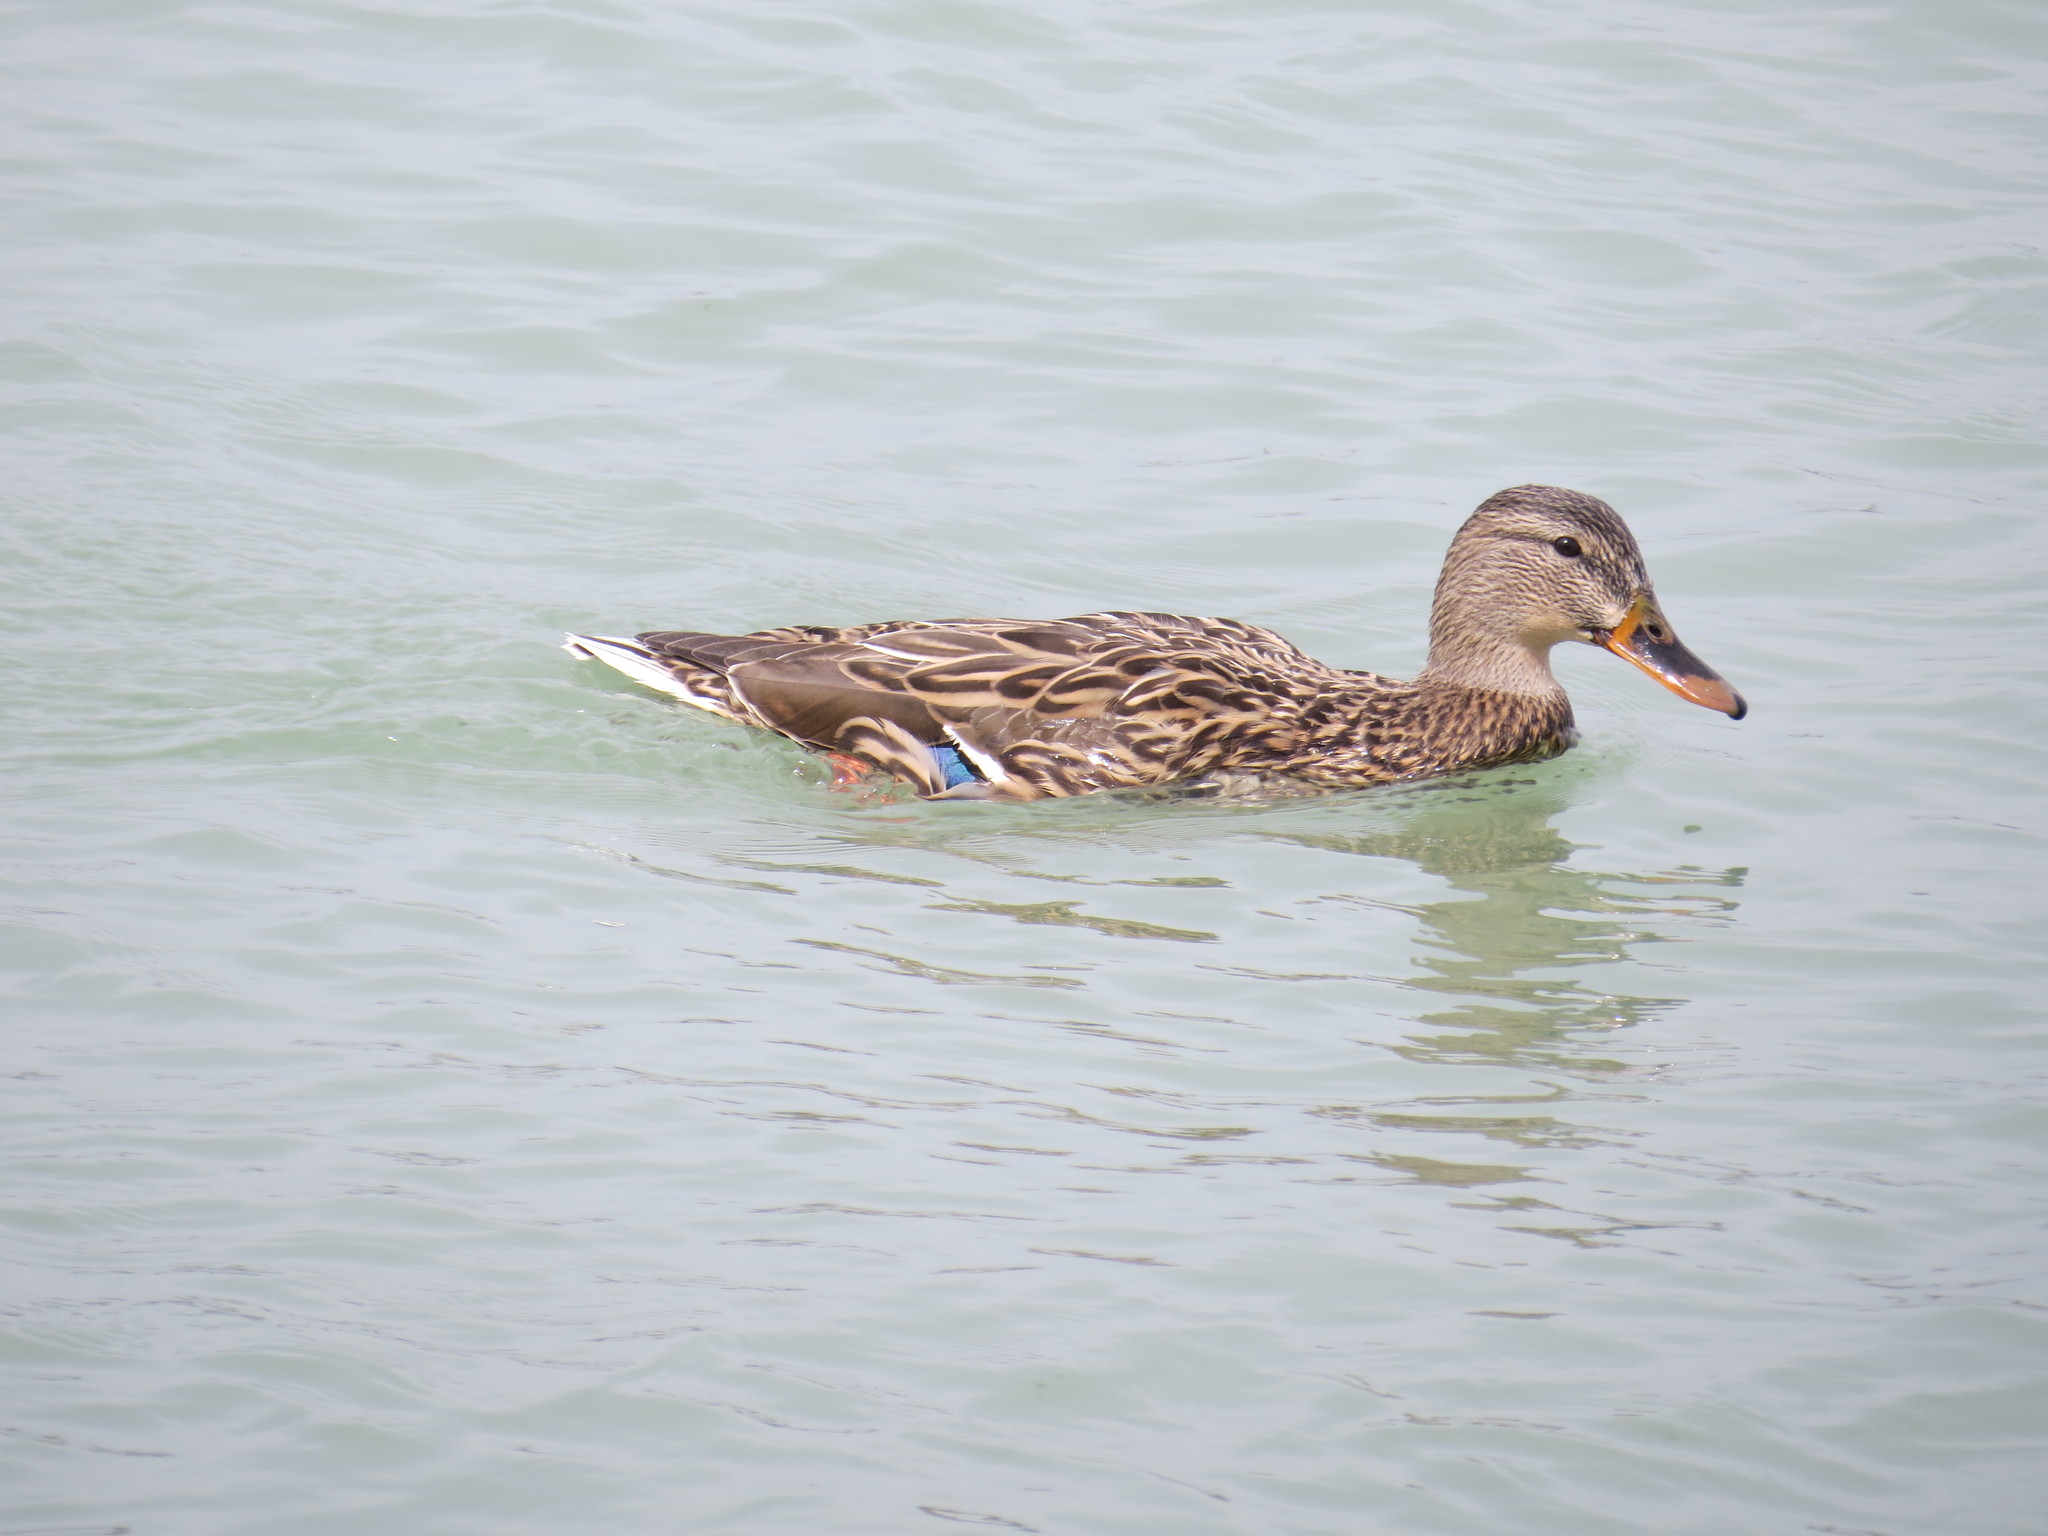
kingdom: Animalia
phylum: Chordata
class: Aves
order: Anseriformes
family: Anatidae
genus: Anas
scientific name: Anas platyrhynchos
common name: Mallard
